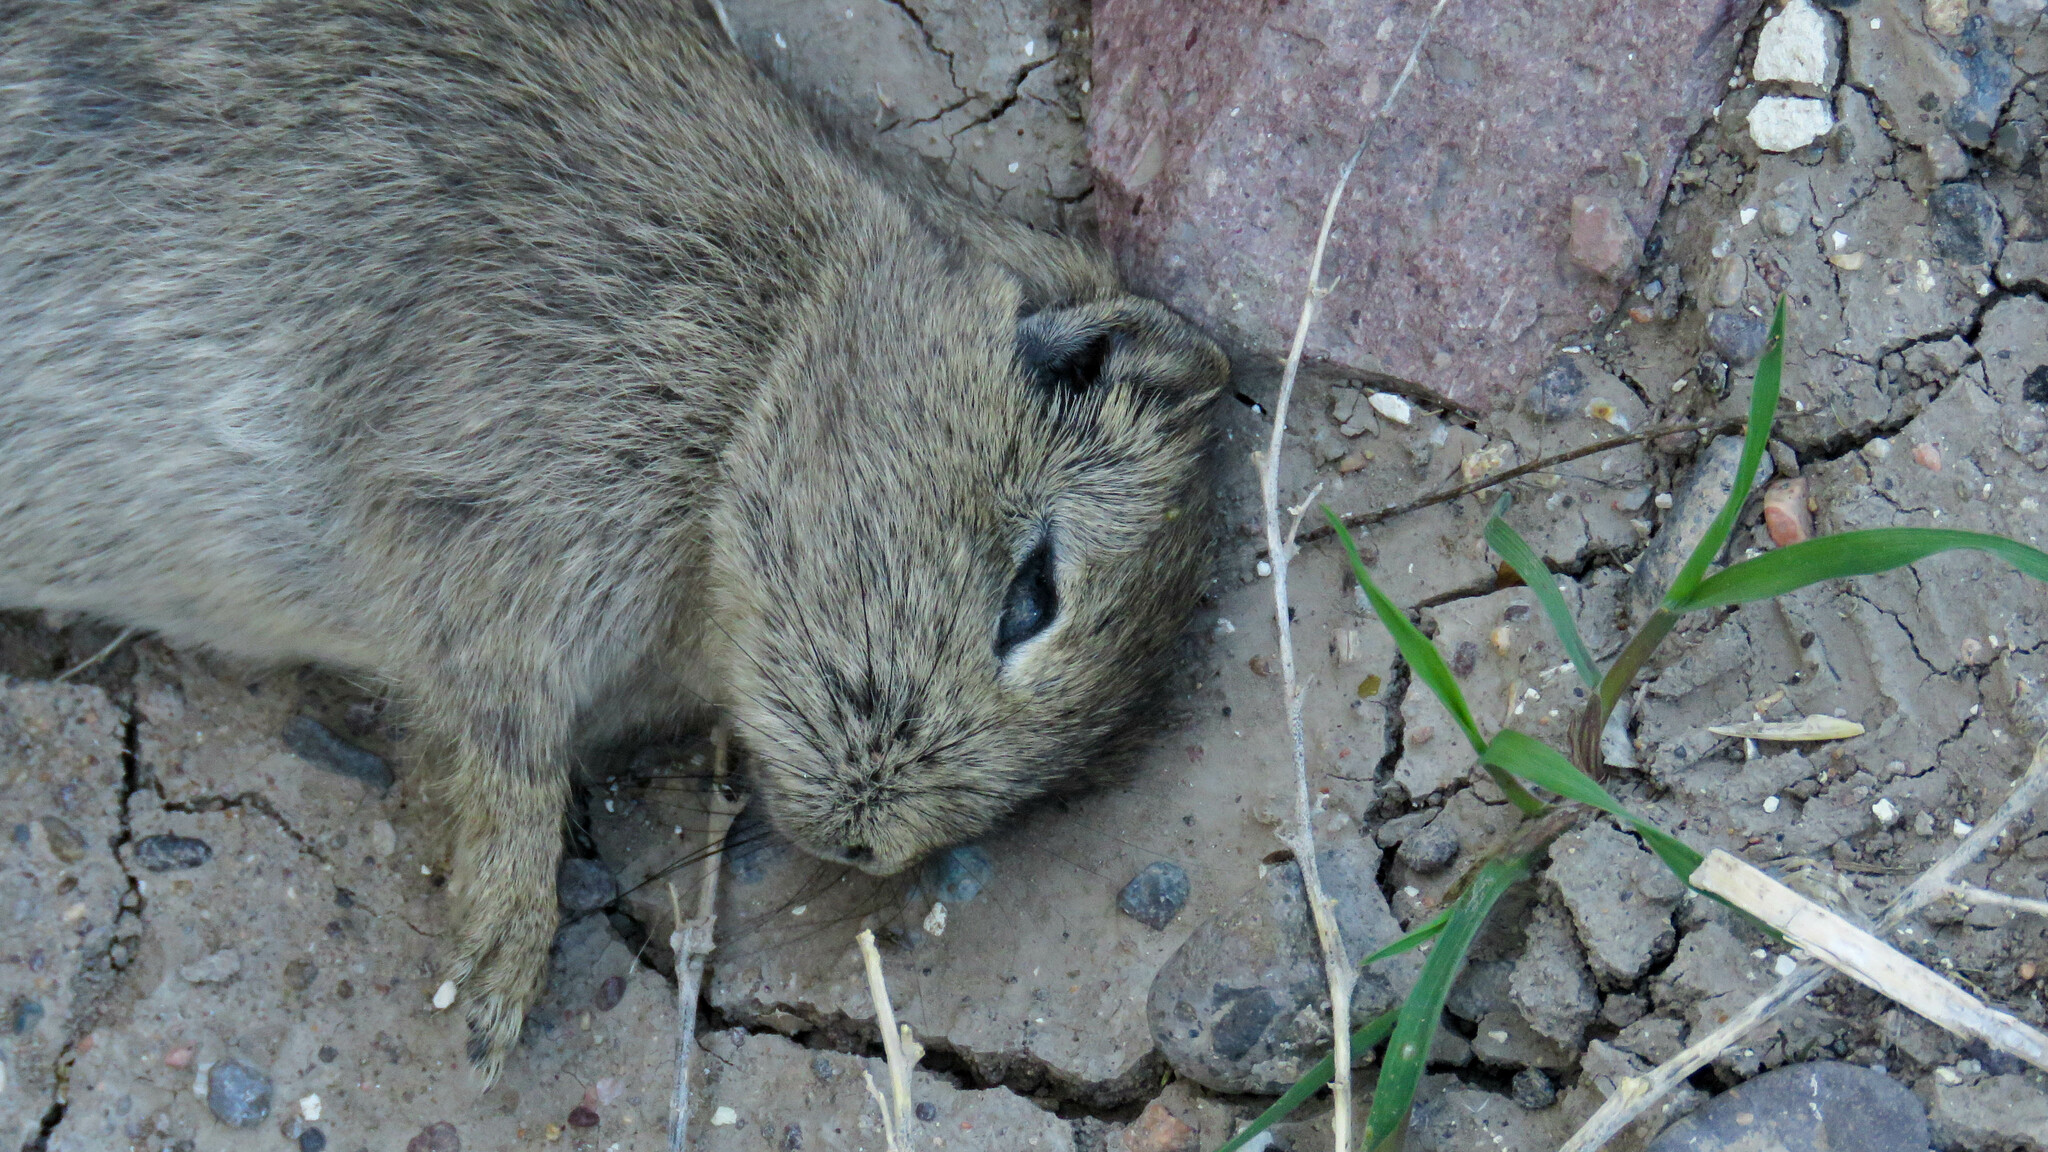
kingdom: Animalia
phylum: Chordata
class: Mammalia
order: Rodentia
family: Caviidae
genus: Microcavia
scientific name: Microcavia australis
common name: Southern mountain cavy
